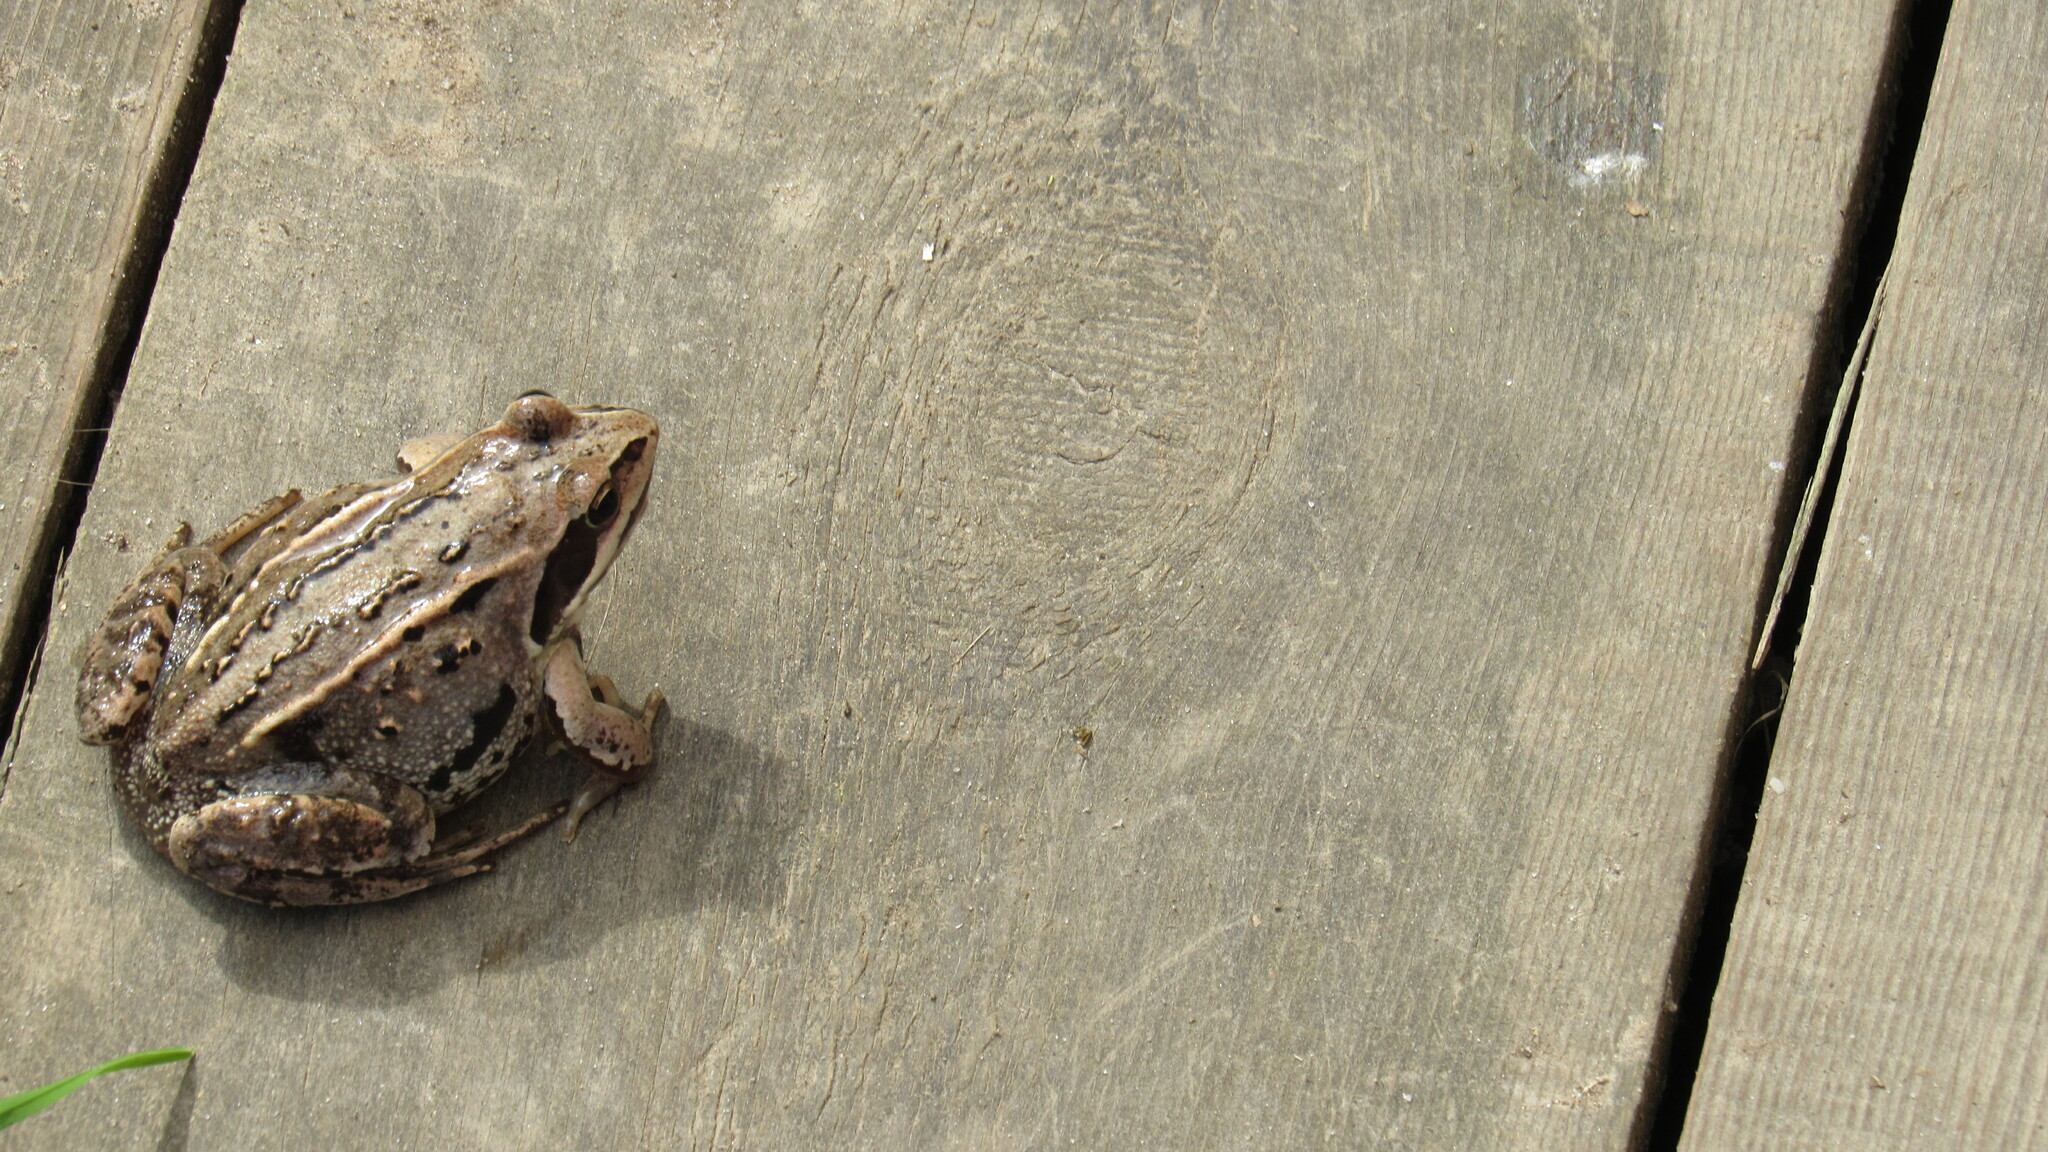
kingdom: Animalia
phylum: Chordata
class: Amphibia
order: Anura
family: Ranidae
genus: Rana
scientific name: Rana arvalis
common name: Moor frog
